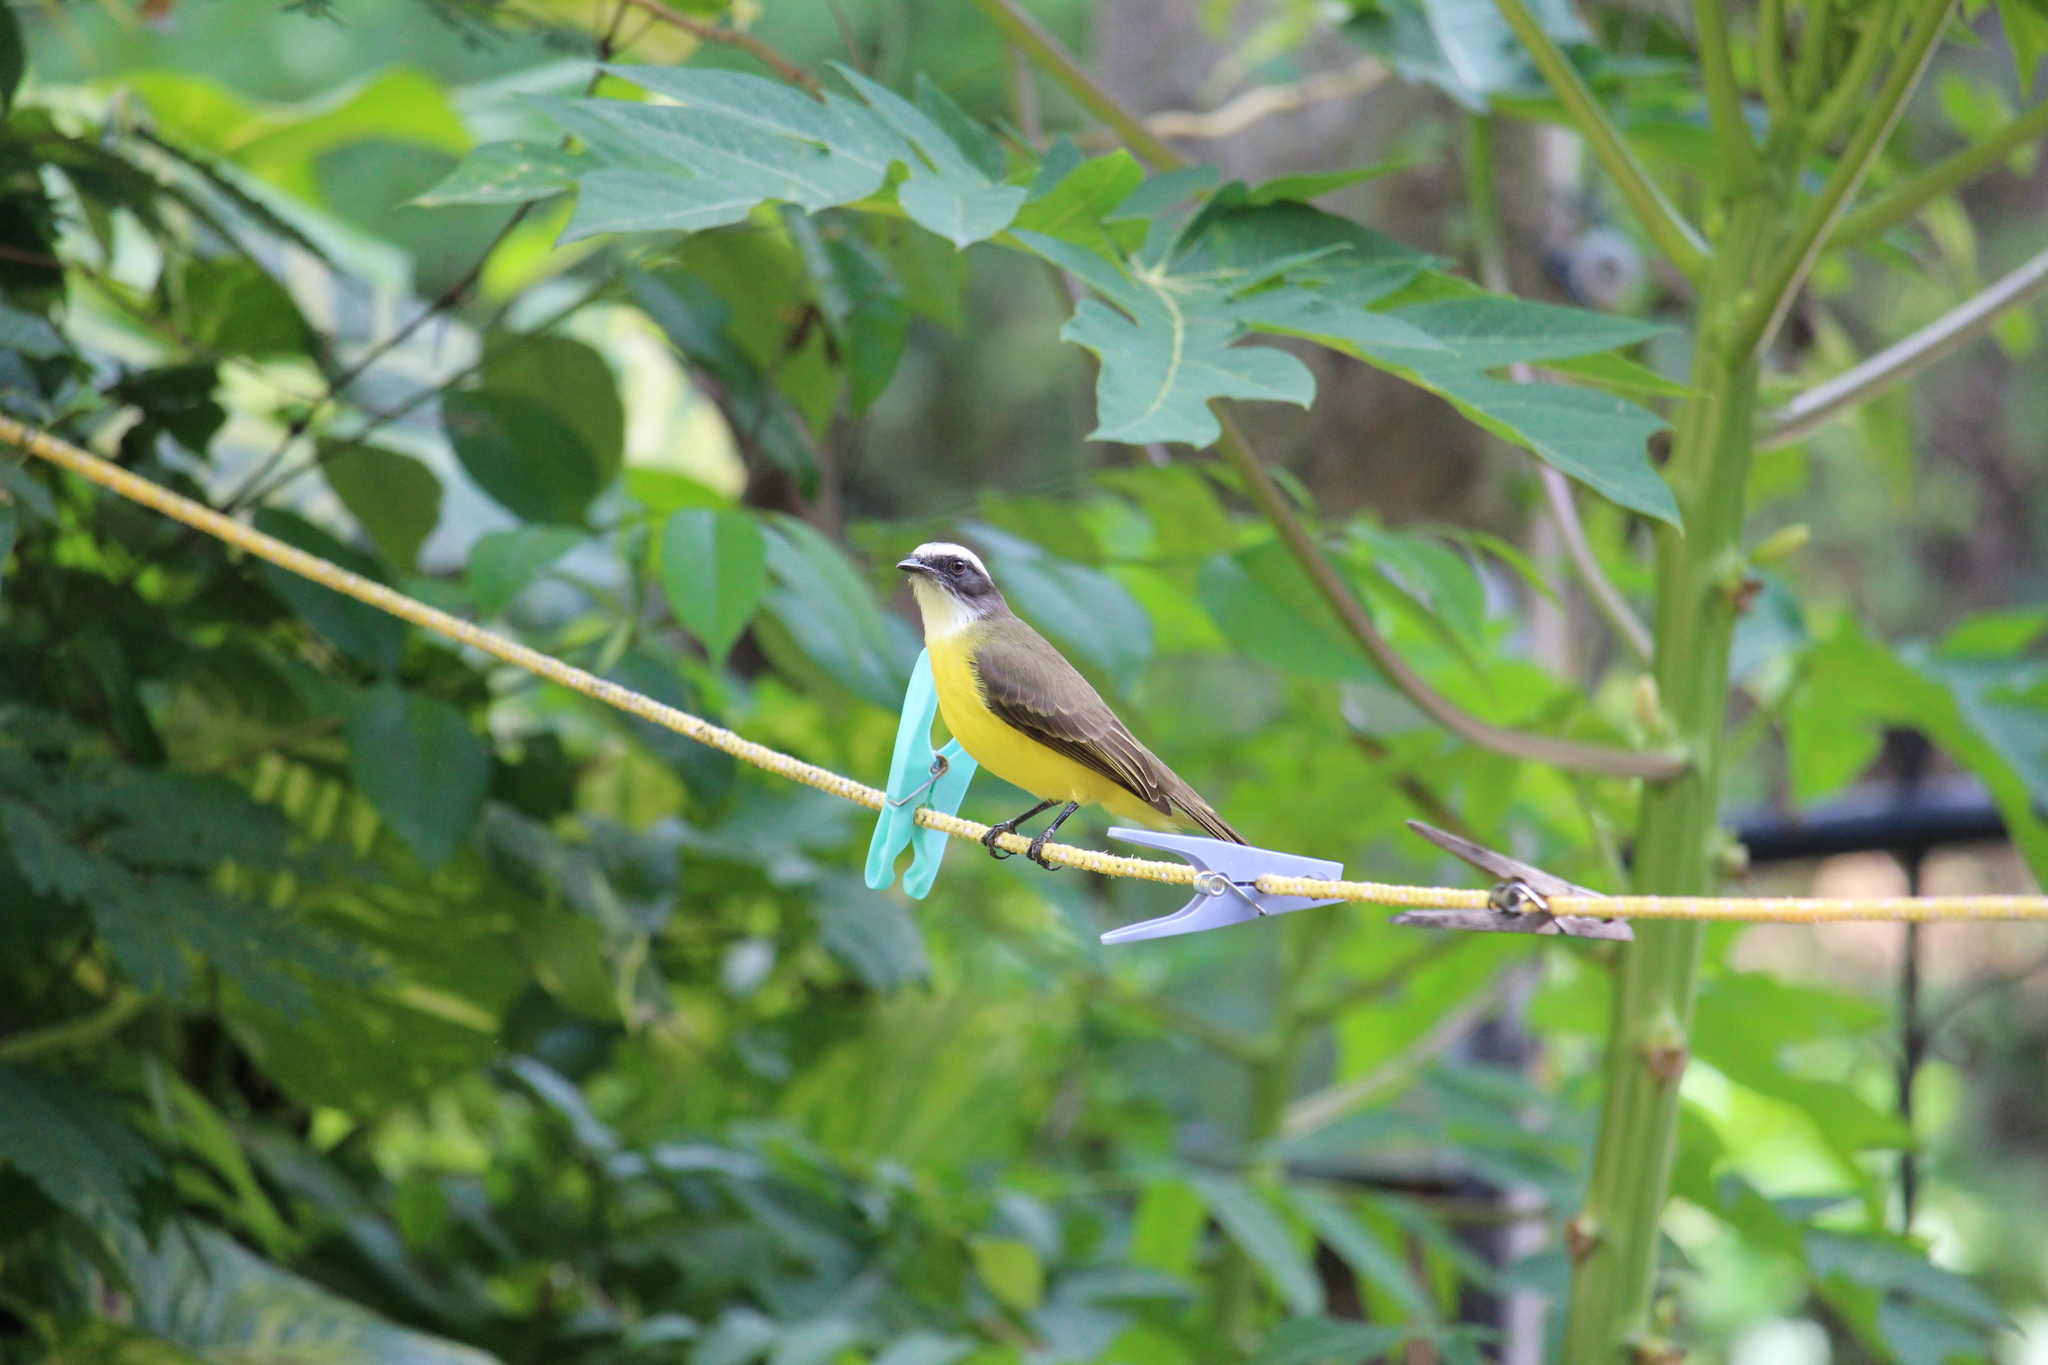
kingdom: Animalia
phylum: Chordata
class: Aves
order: Passeriformes
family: Tyrannidae
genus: Myiozetetes
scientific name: Myiozetetes similis
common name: Social flycatcher
